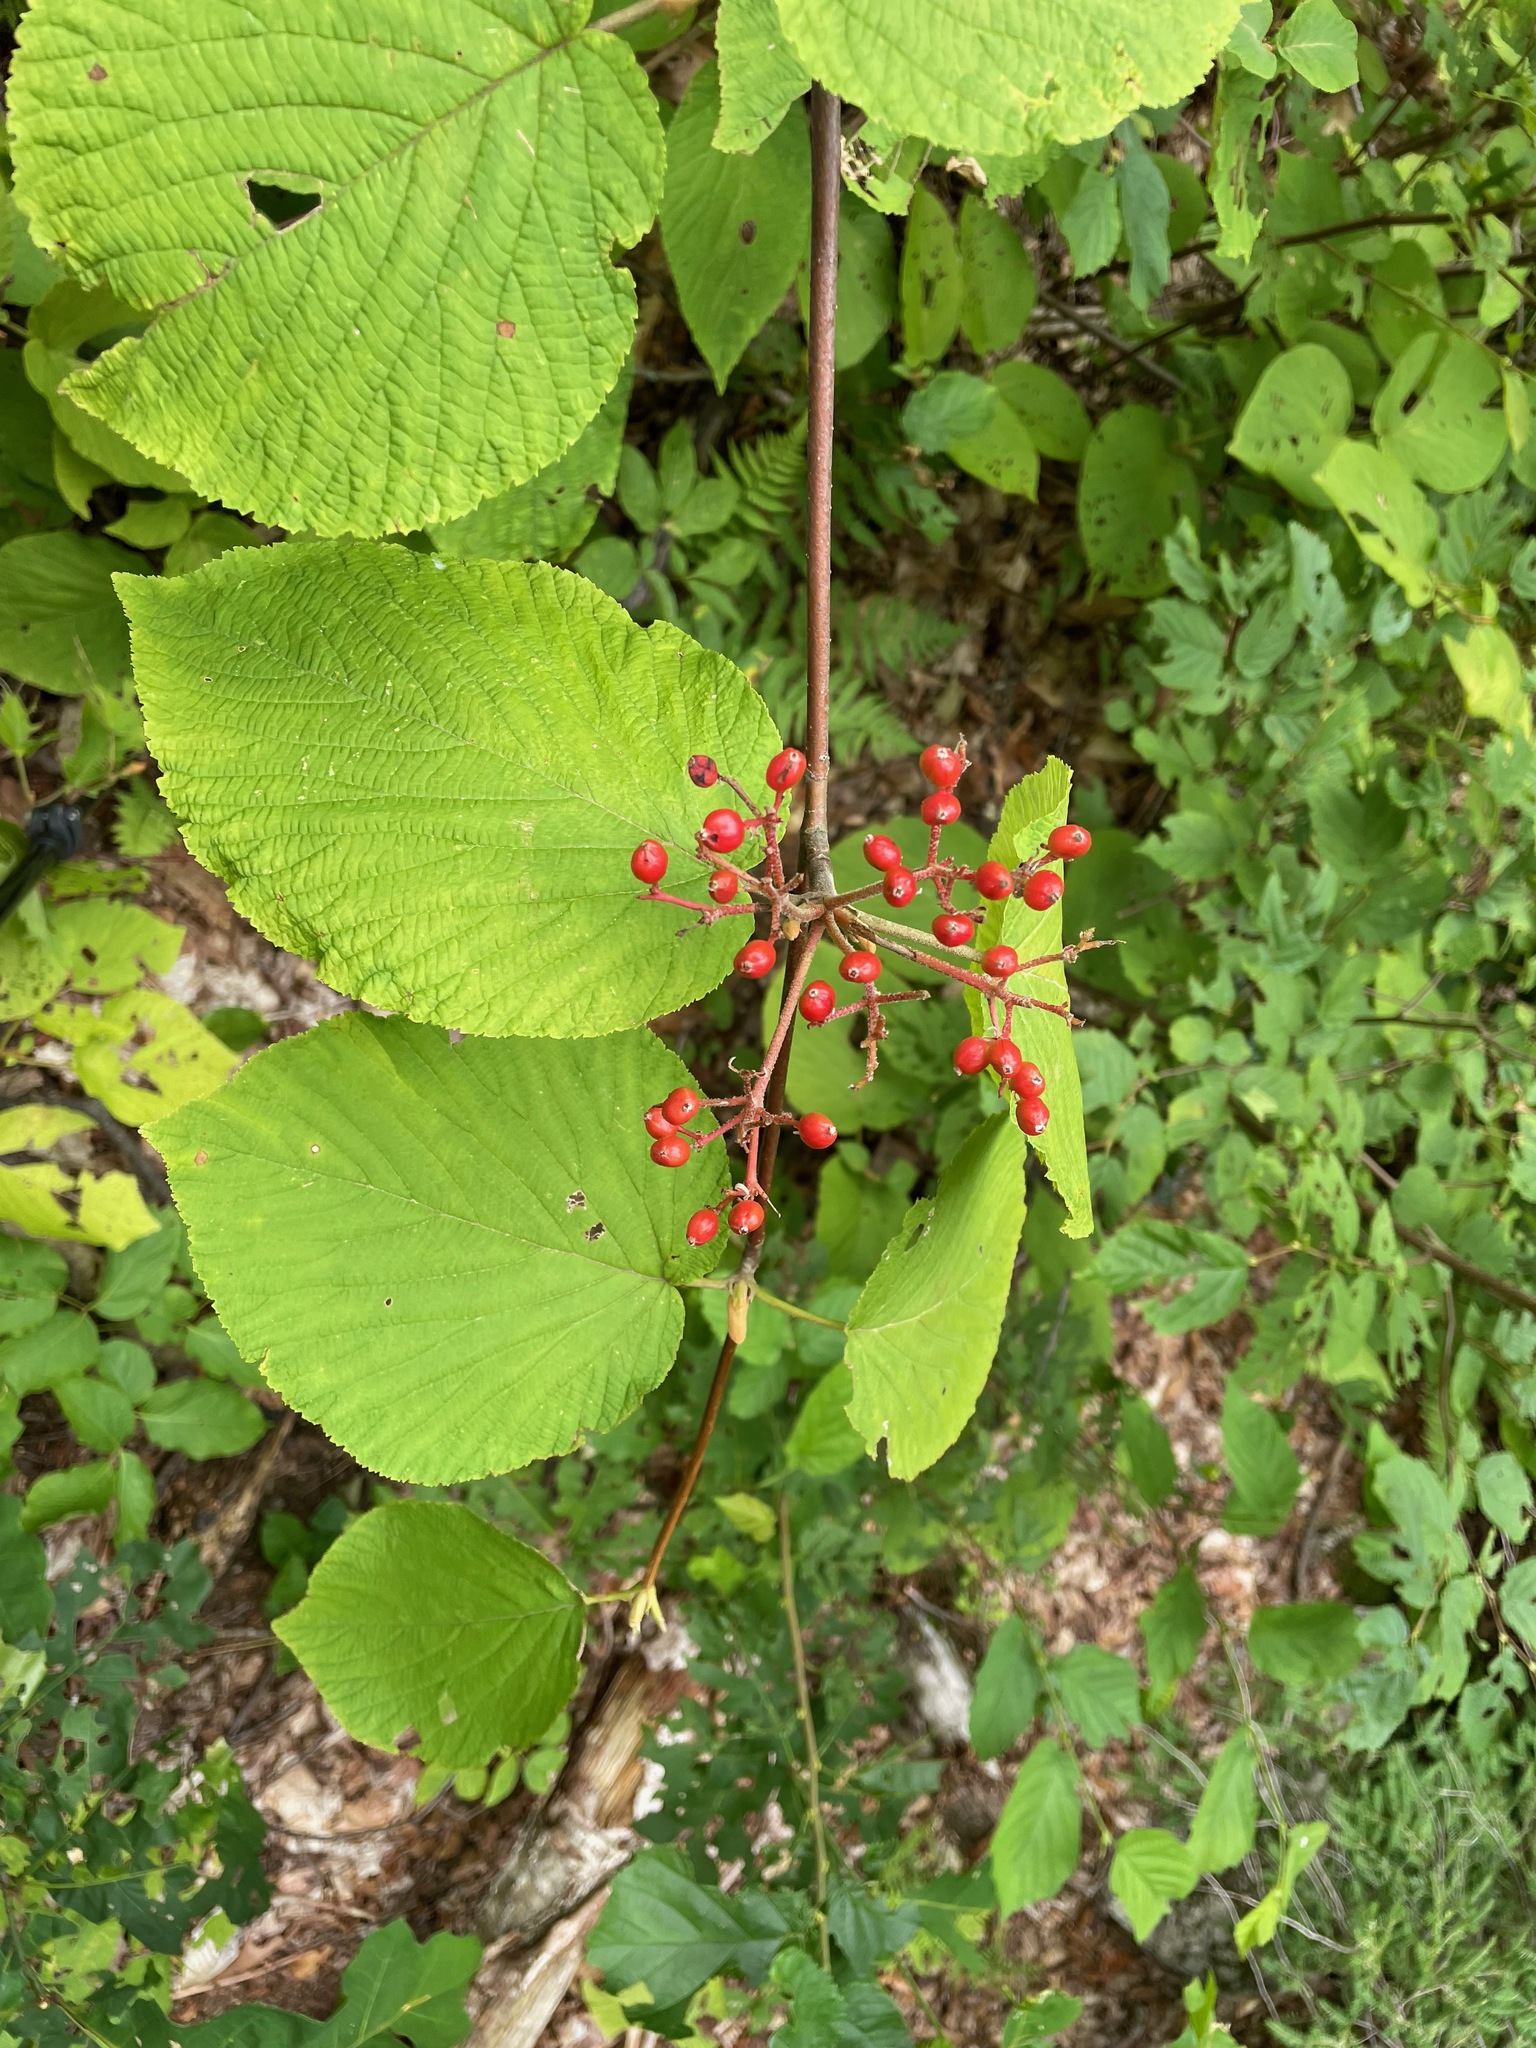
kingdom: Plantae
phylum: Tracheophyta
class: Magnoliopsida
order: Dipsacales
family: Viburnaceae
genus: Viburnum
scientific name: Viburnum lantanoides
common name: Hobblebush
